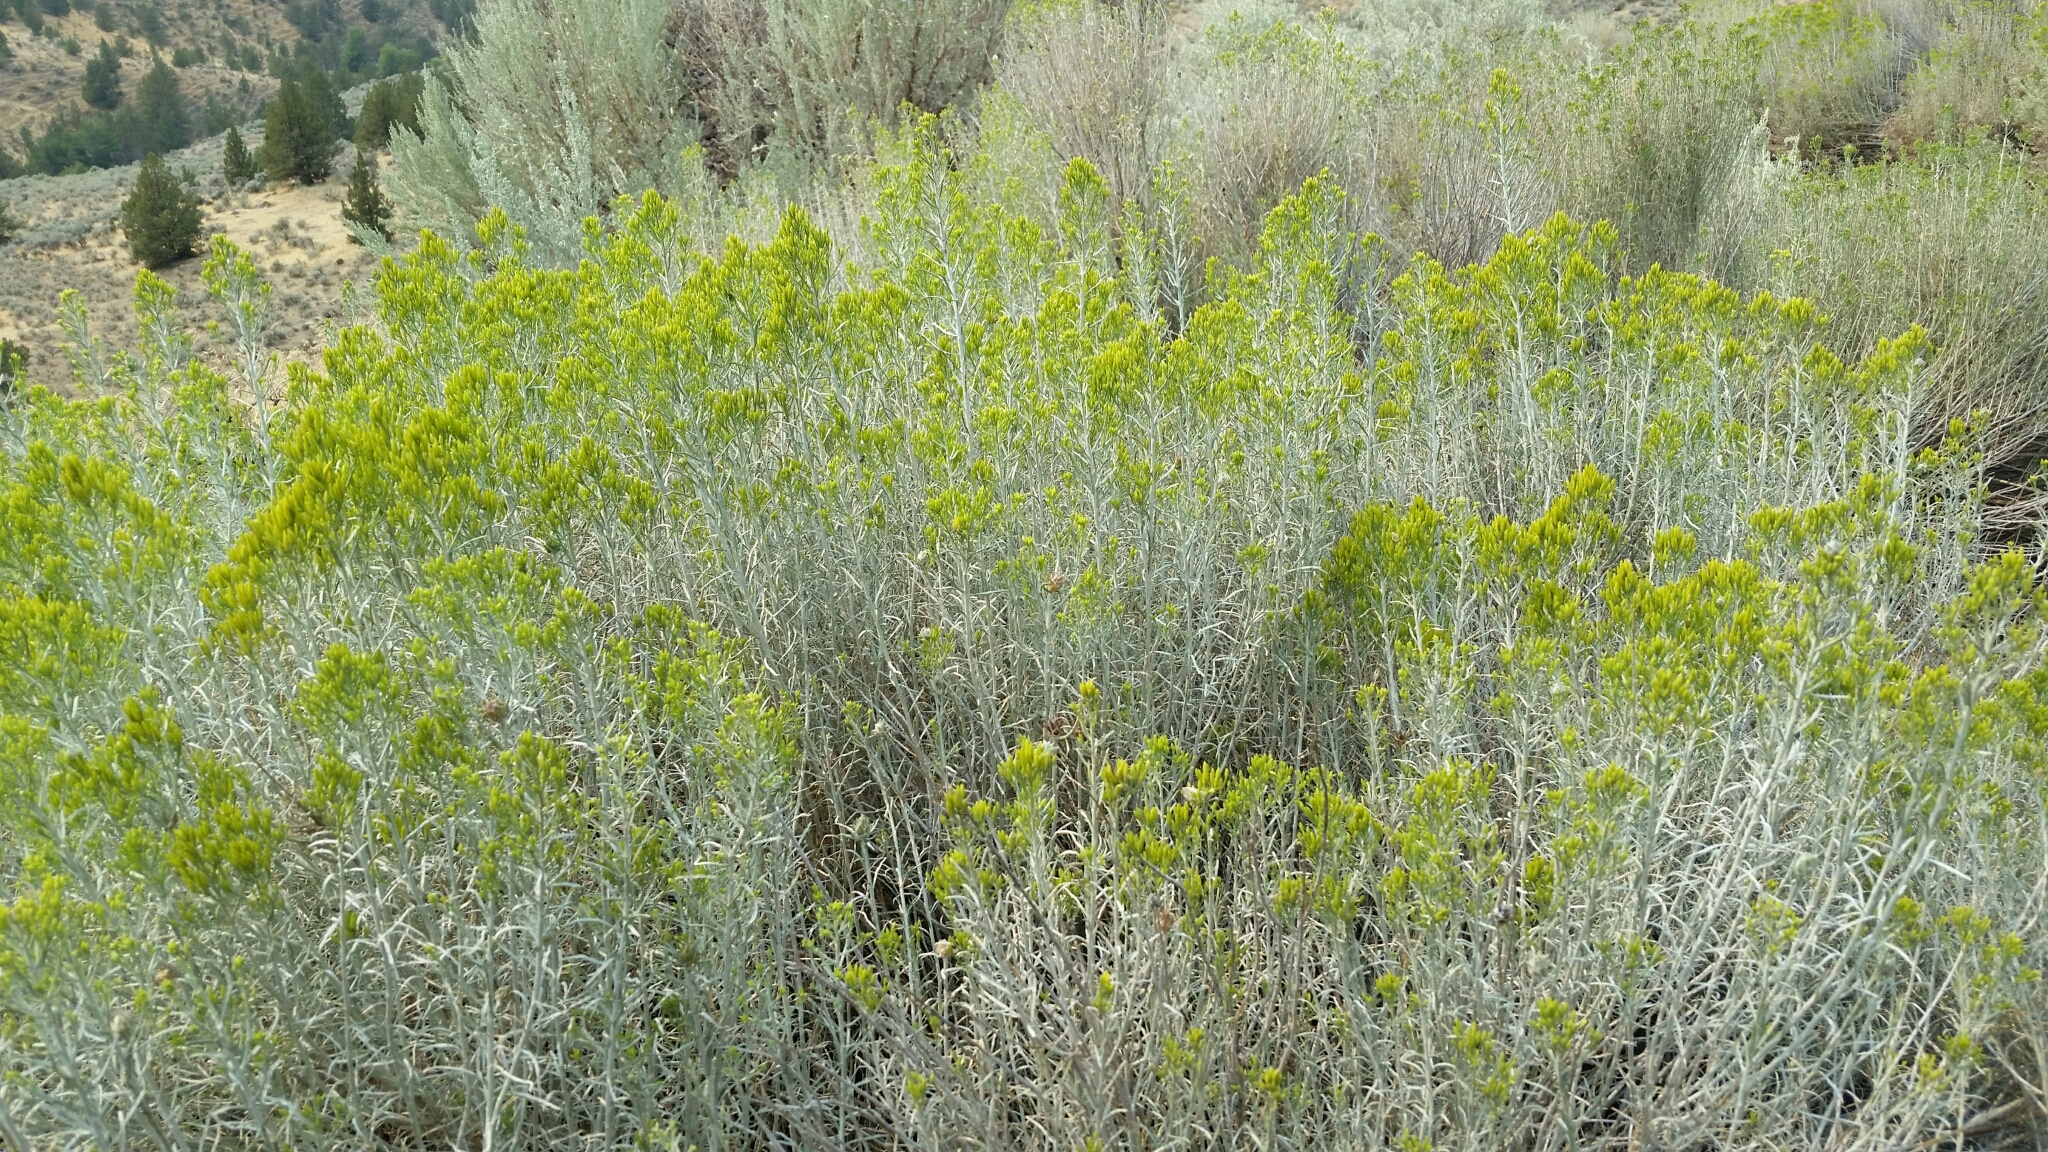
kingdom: Plantae
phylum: Tracheophyta
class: Magnoliopsida
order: Asterales
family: Asteraceae
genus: Ericameria
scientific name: Ericameria nauseosa
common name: Rubber rabbitbrush
